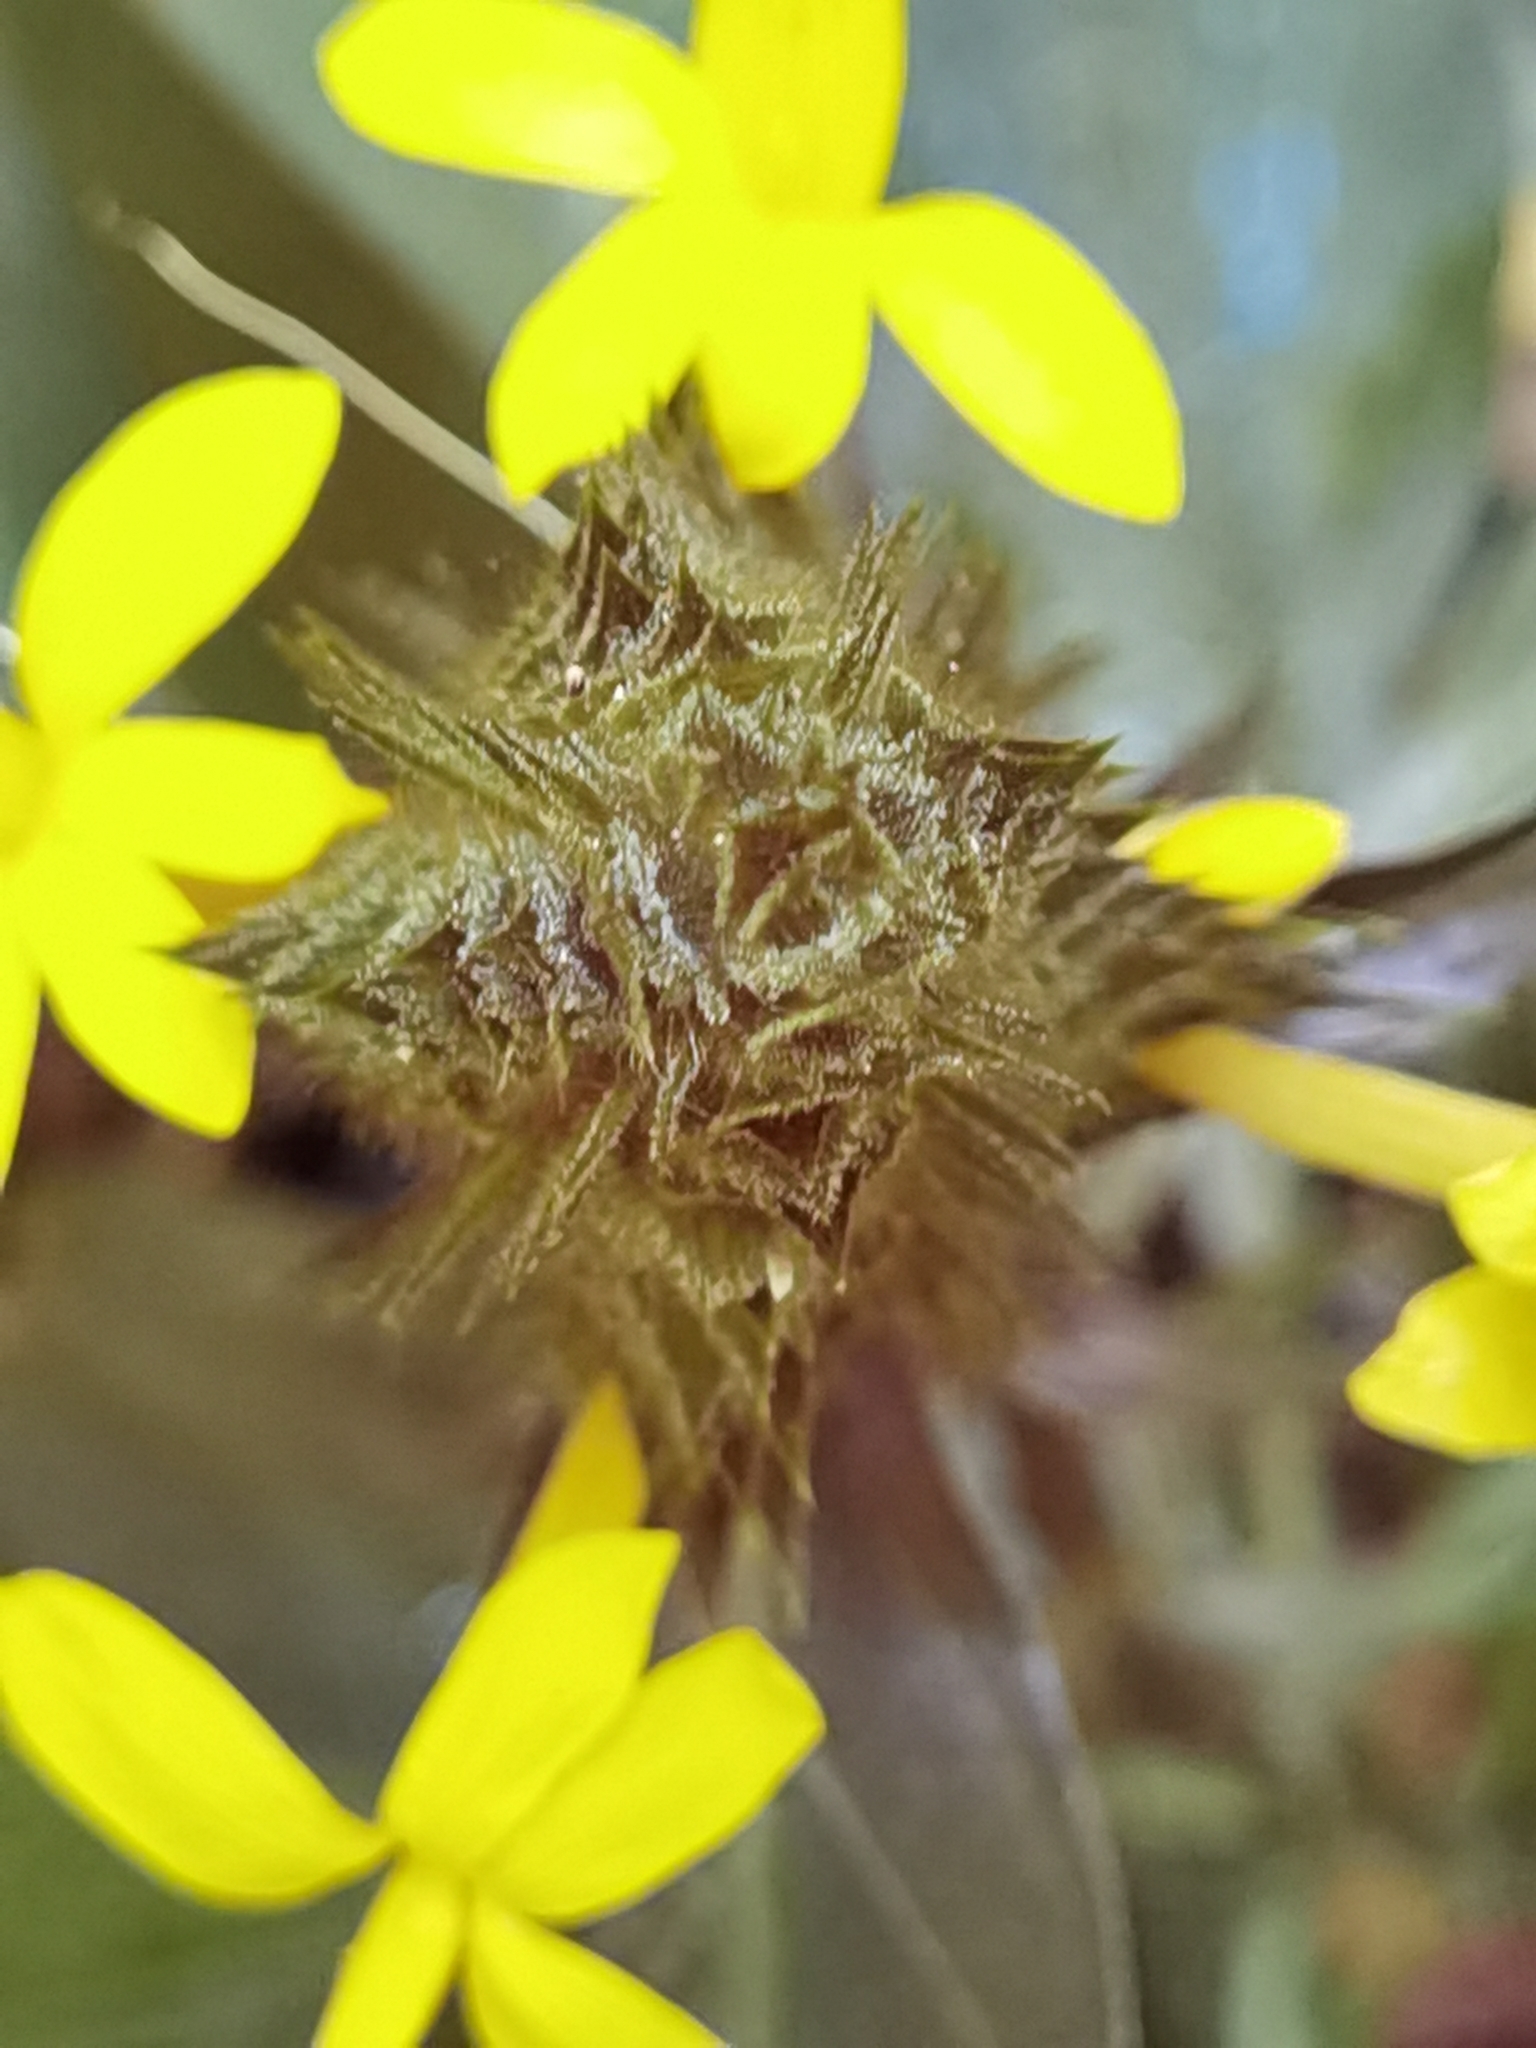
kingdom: Plantae
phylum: Tracheophyta
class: Magnoliopsida
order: Lamiales
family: Acanthaceae
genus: Barleria
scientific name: Barleria oenotheroides
